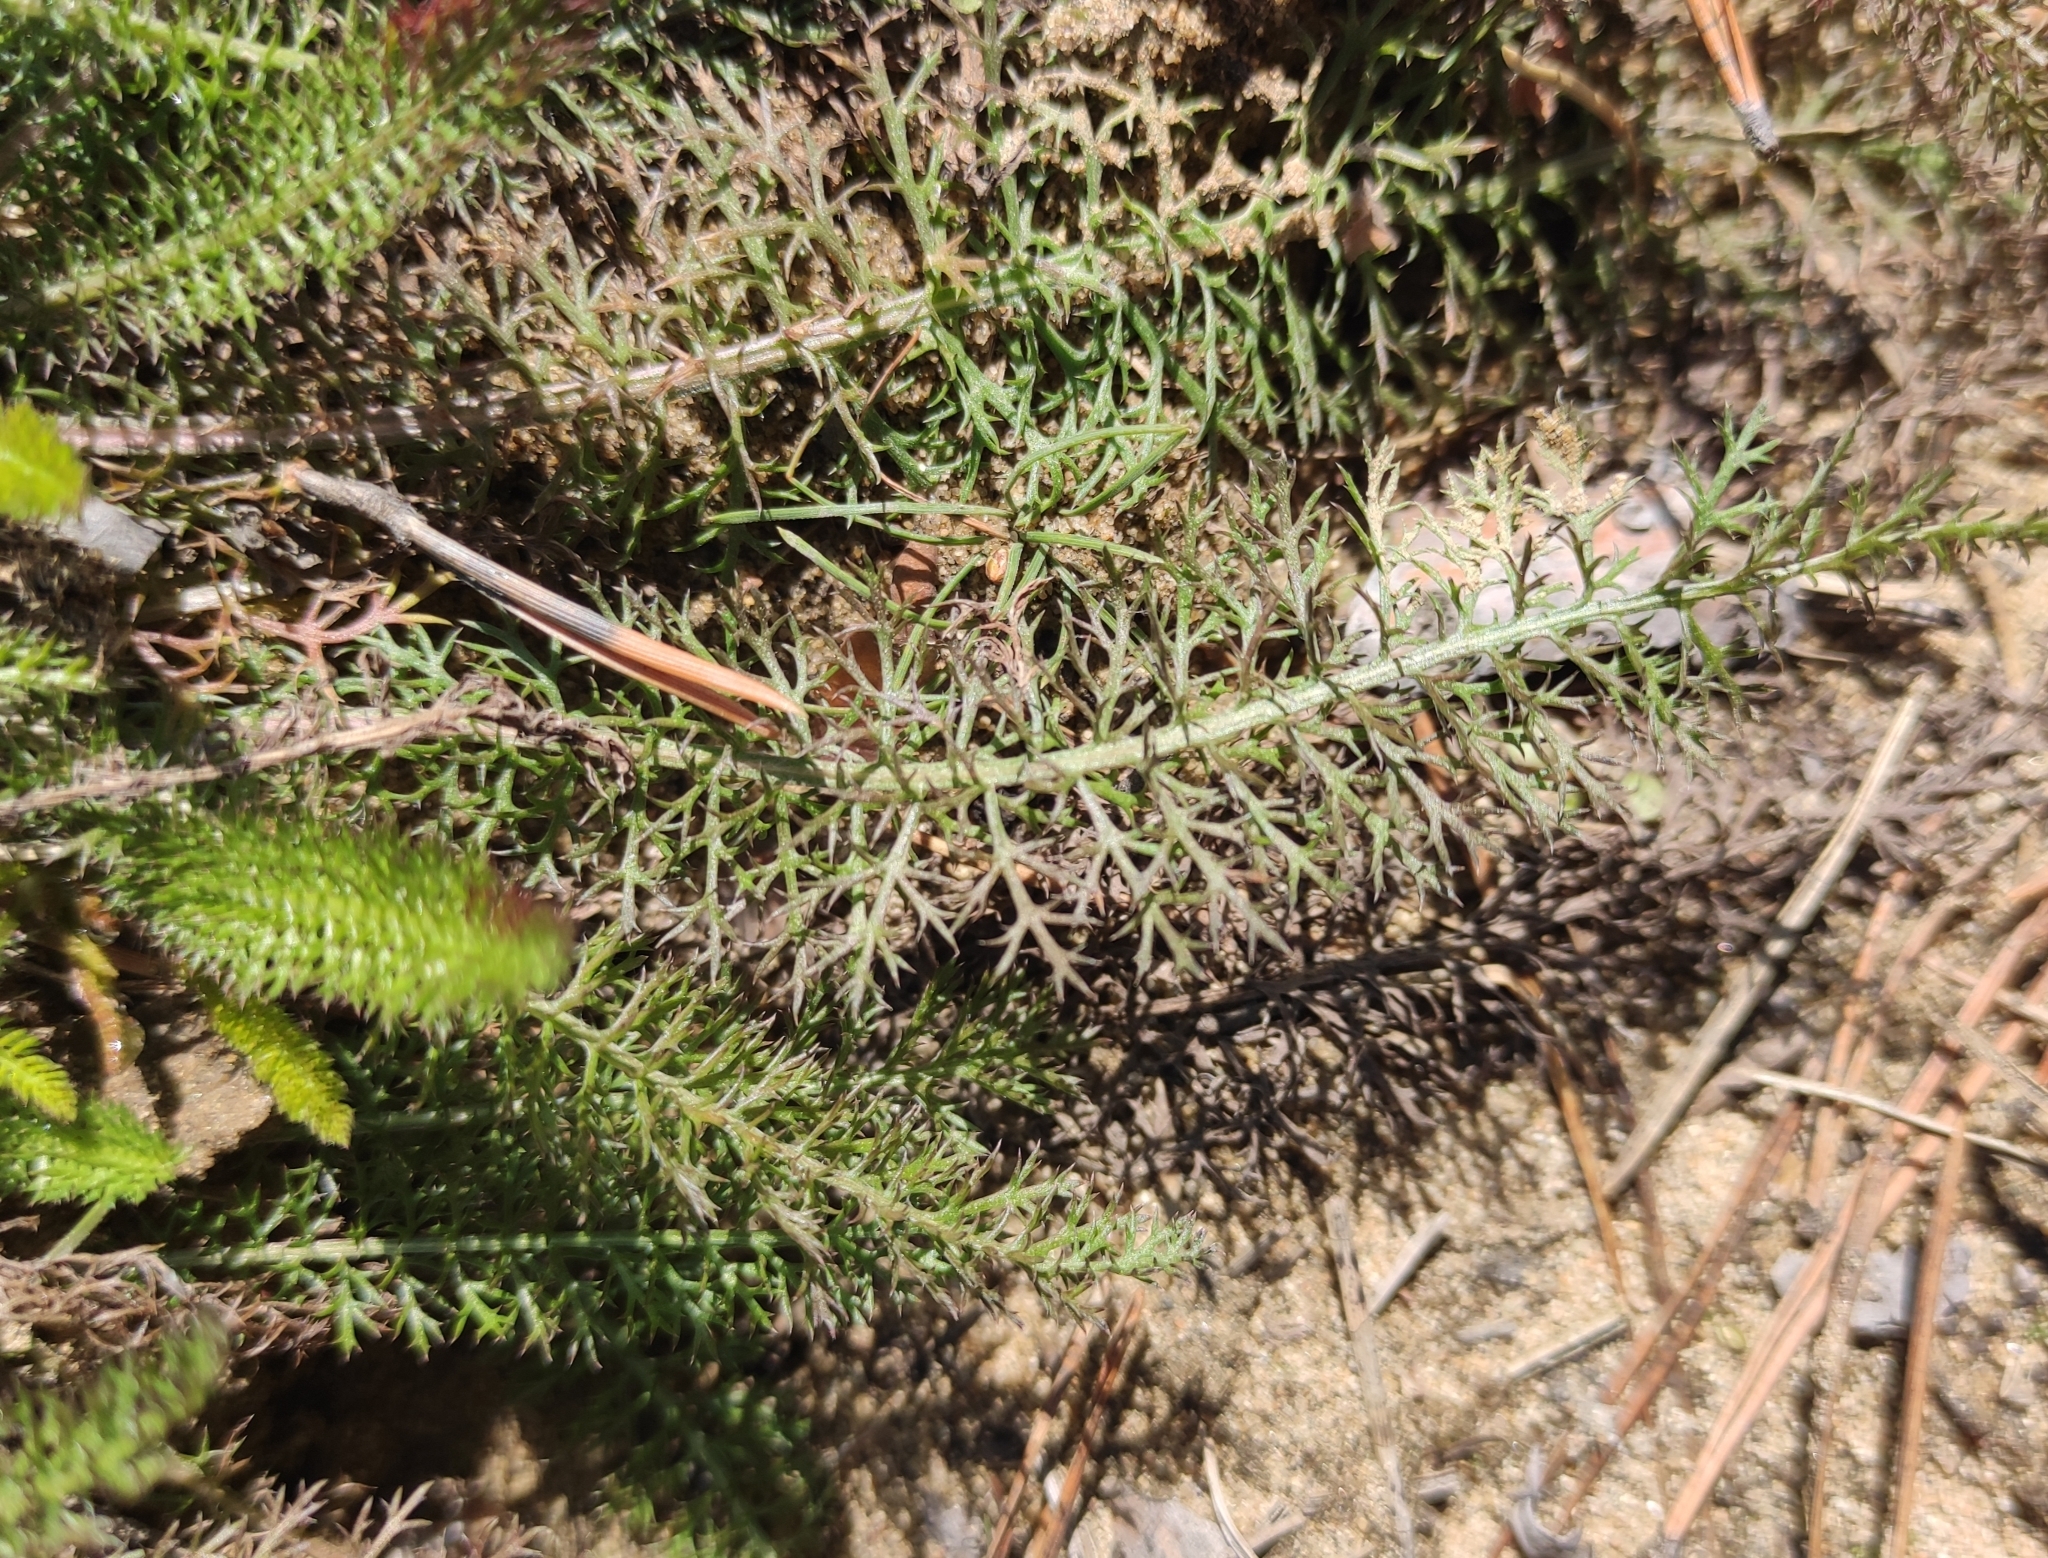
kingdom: Plantae
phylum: Tracheophyta
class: Magnoliopsida
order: Asterales
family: Asteraceae
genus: Achillea
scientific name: Achillea millefolium
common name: Yarrow
